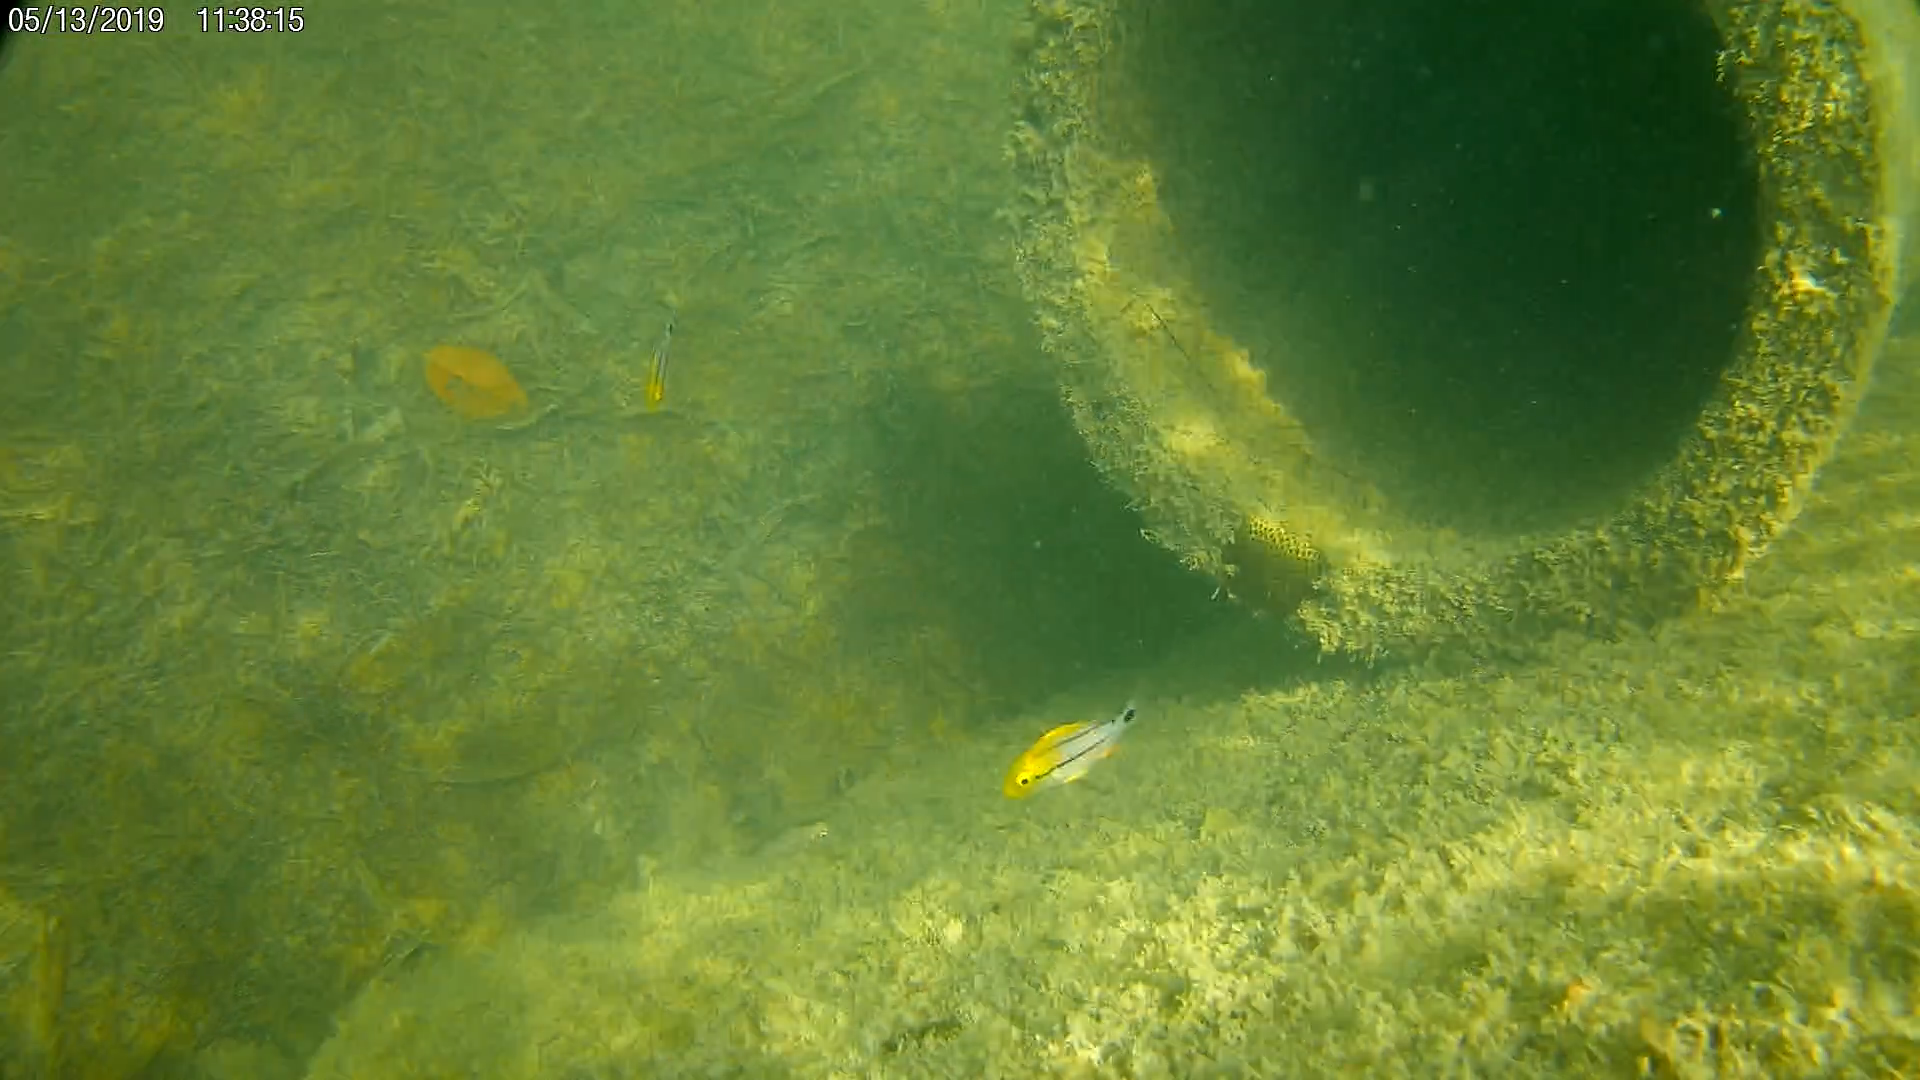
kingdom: Animalia
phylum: Chordata
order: Perciformes
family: Haemulidae
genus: Anisotremus
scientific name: Anisotremus virginicus
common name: Porkfish
